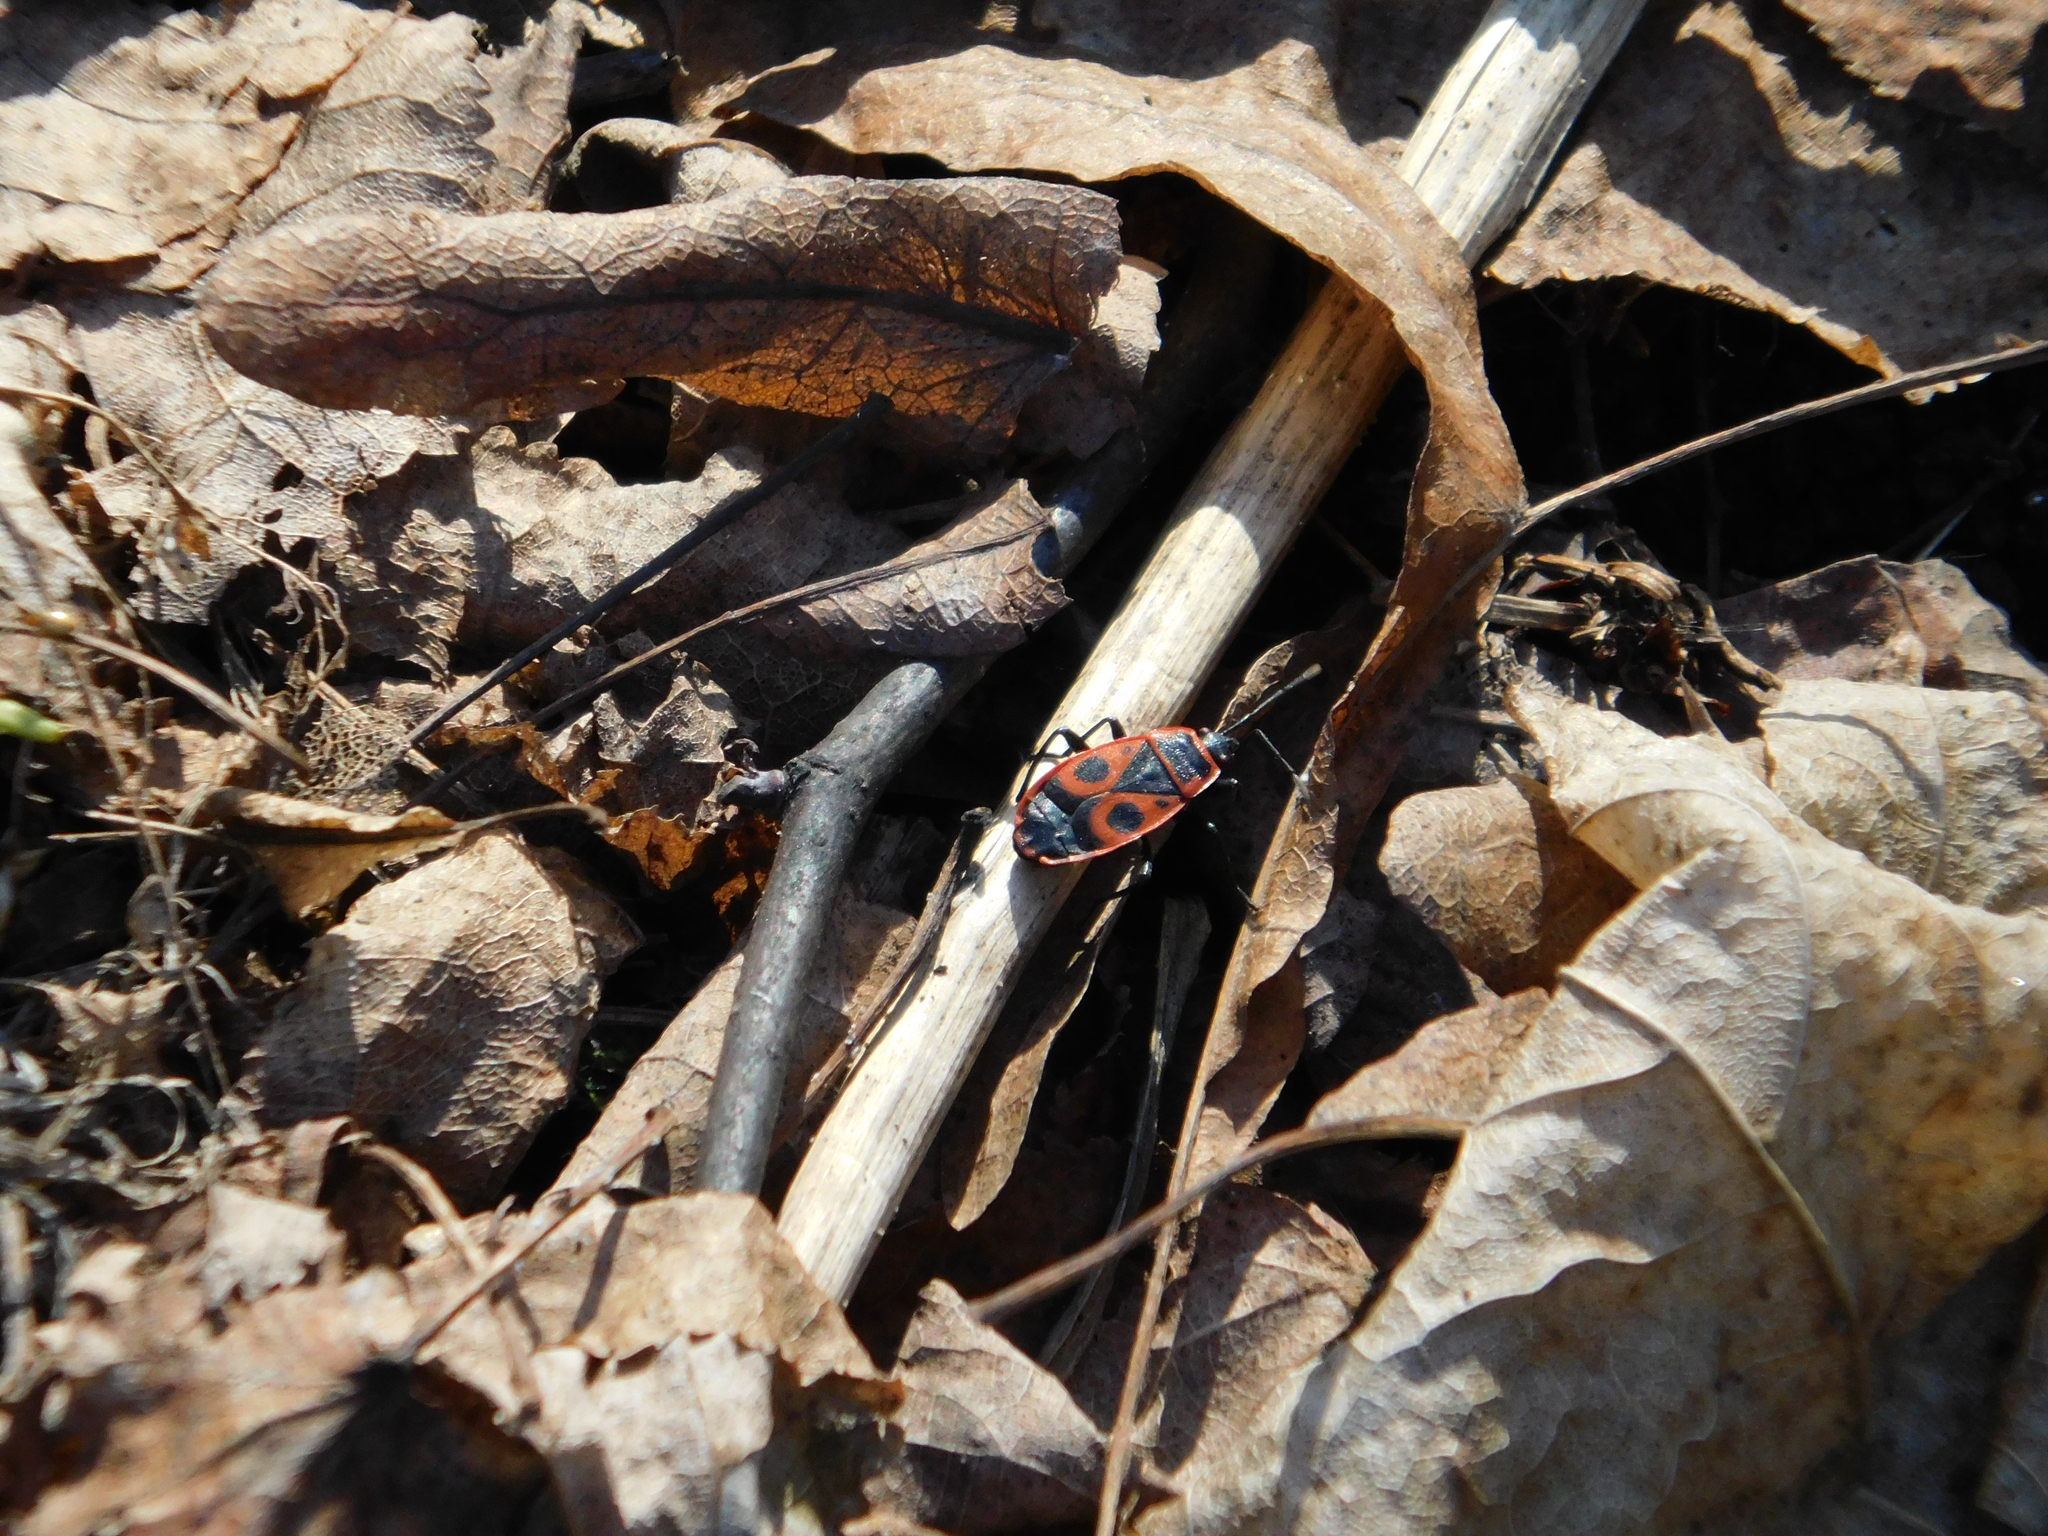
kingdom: Animalia
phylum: Arthropoda
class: Insecta
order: Hemiptera
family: Pyrrhocoridae
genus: Pyrrhocoris
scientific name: Pyrrhocoris apterus
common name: Firebug
